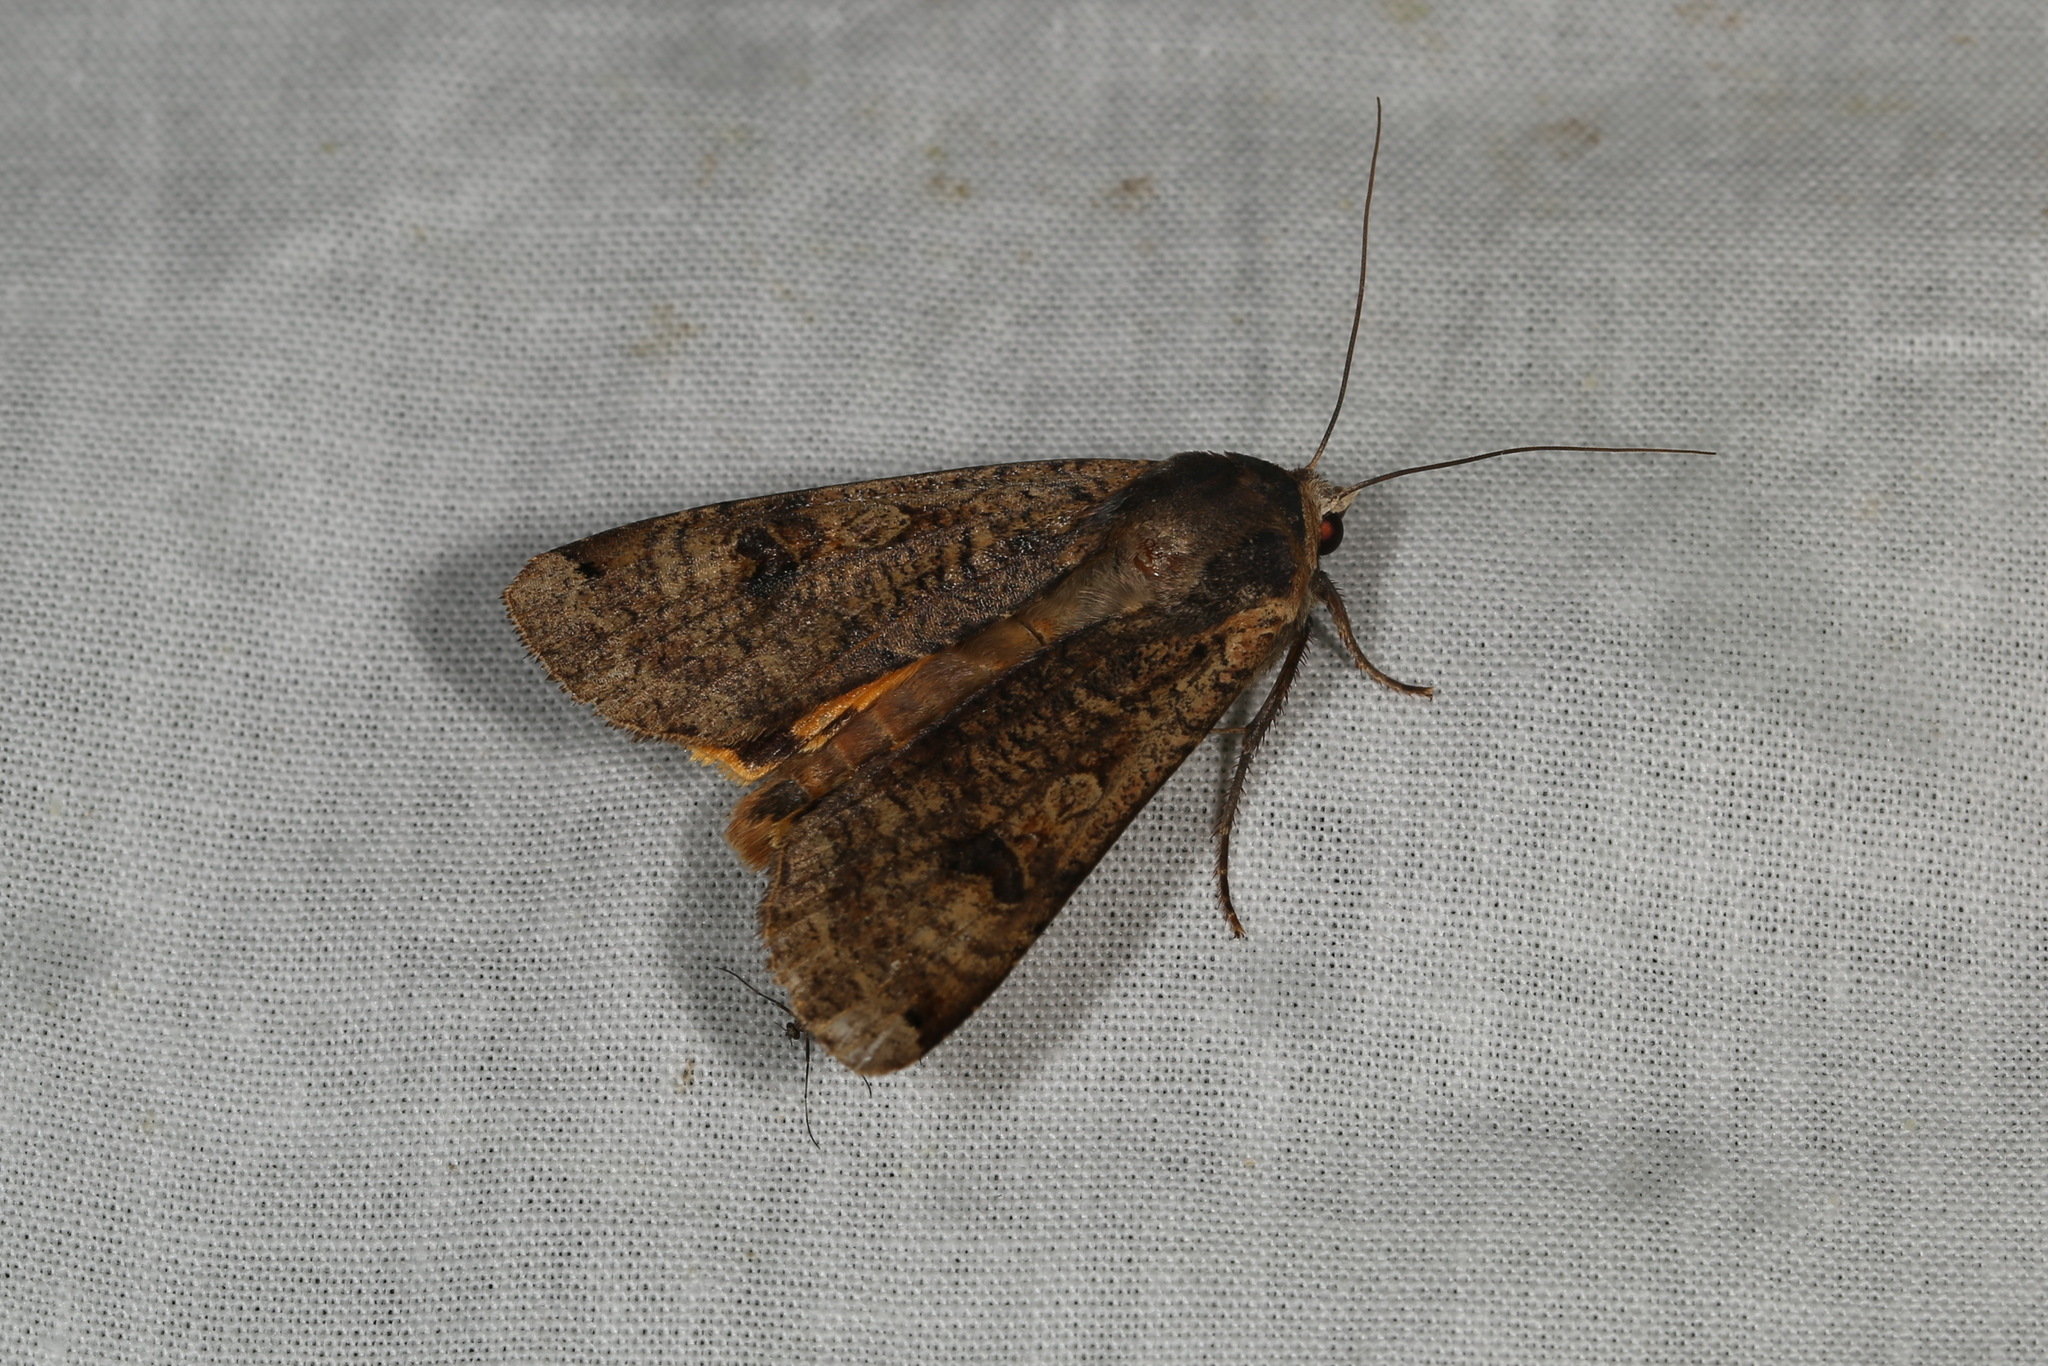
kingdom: Animalia
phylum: Arthropoda
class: Insecta
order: Lepidoptera
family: Noctuidae
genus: Noctua
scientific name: Noctua pronuba
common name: Large yellow underwing
